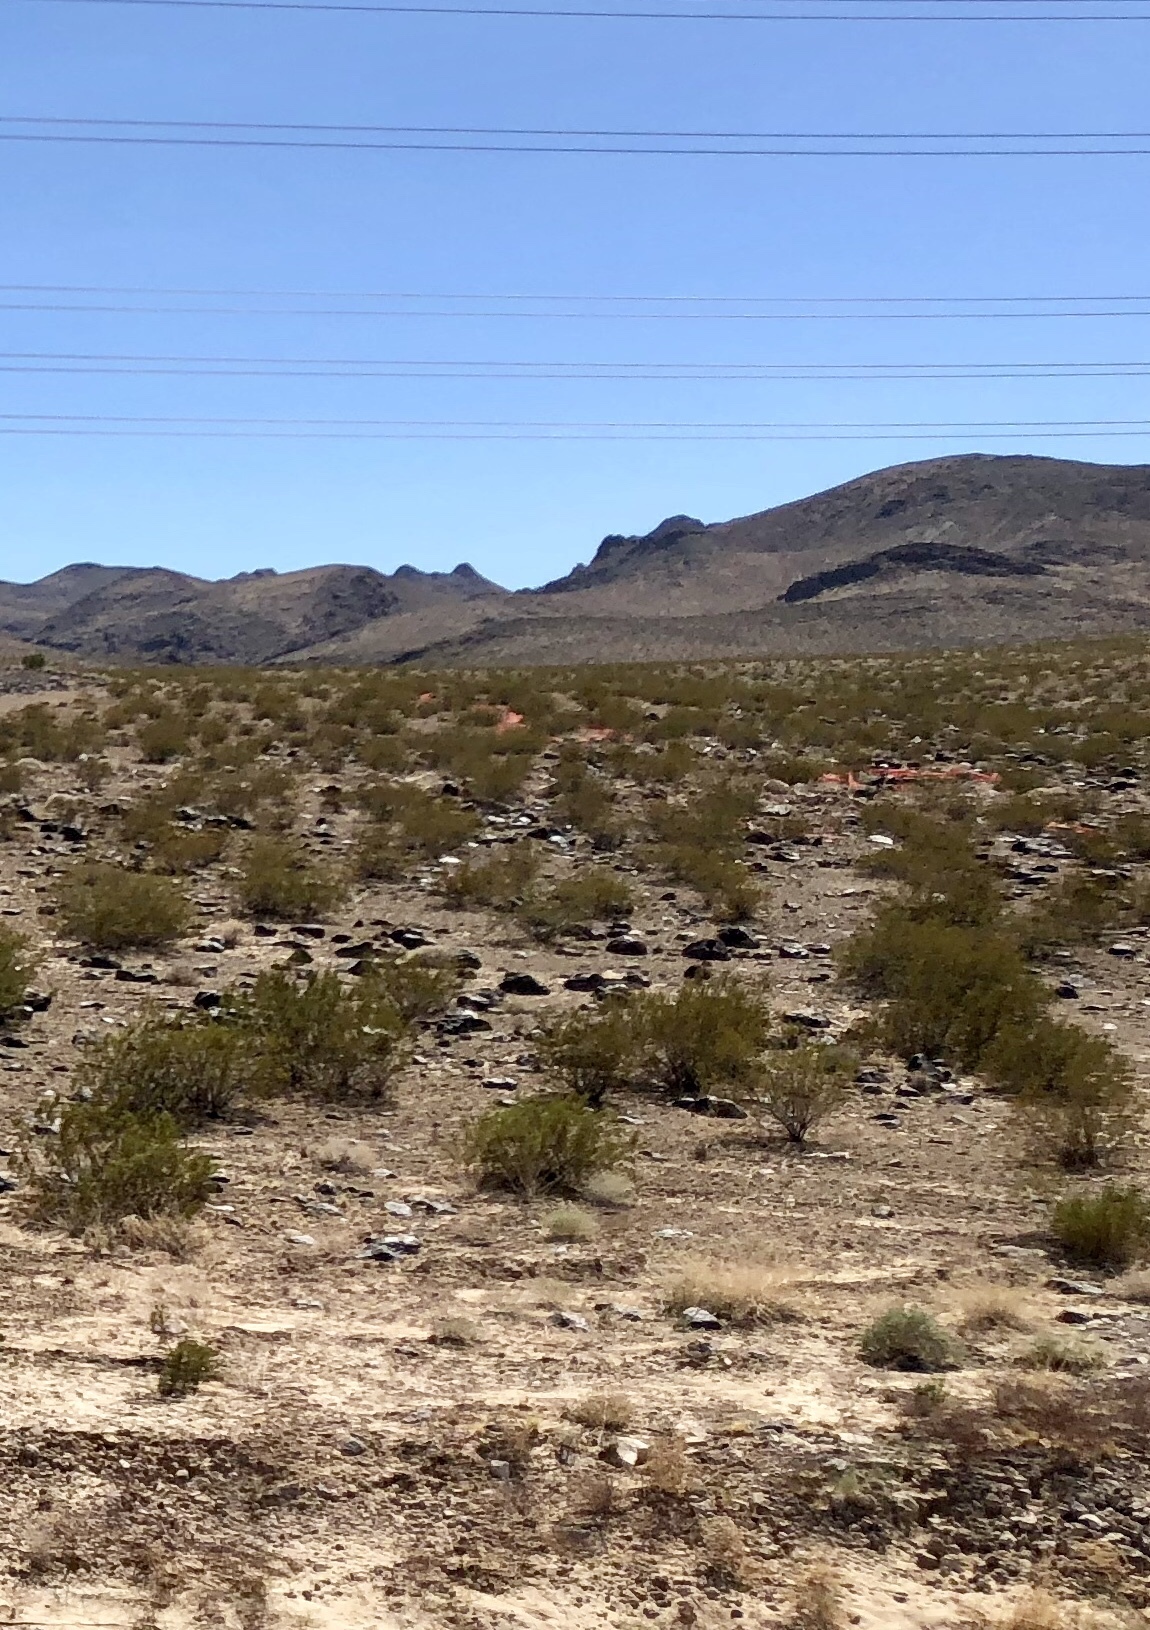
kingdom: Plantae
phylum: Tracheophyta
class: Magnoliopsida
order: Zygophyllales
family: Zygophyllaceae
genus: Larrea
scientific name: Larrea tridentata
